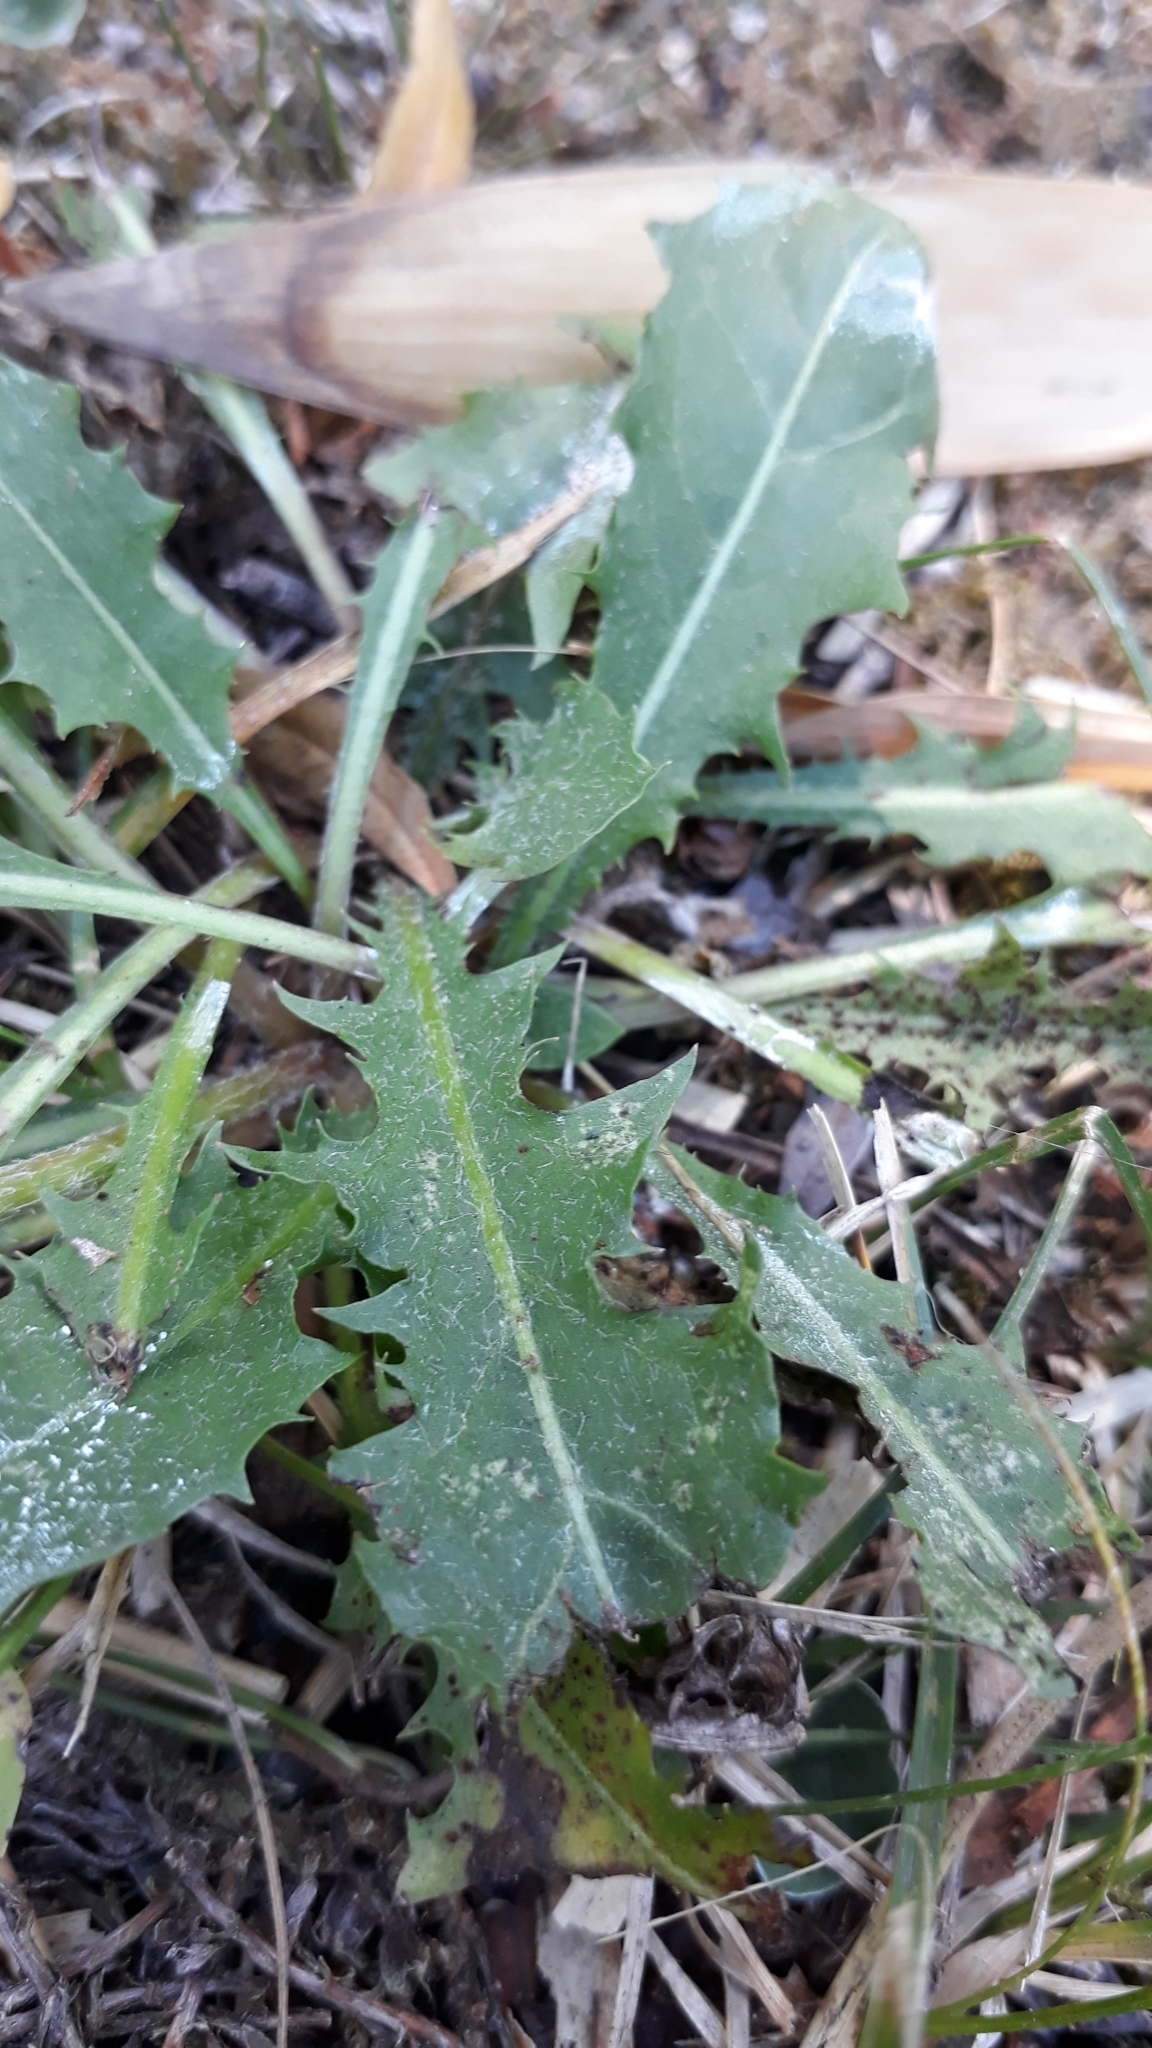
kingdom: Plantae
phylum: Tracheophyta
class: Magnoliopsida
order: Asterales
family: Asteraceae
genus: Taraxacum
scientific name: Taraxacum officinale
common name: Common dandelion
